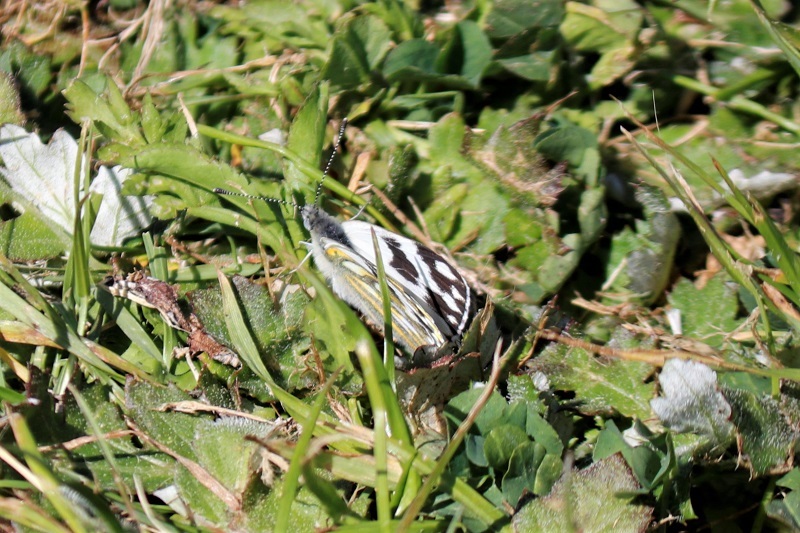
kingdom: Animalia
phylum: Arthropoda
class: Insecta
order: Lepidoptera
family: Pieridae
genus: Pontia
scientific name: Pontia helice
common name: Meadow white
